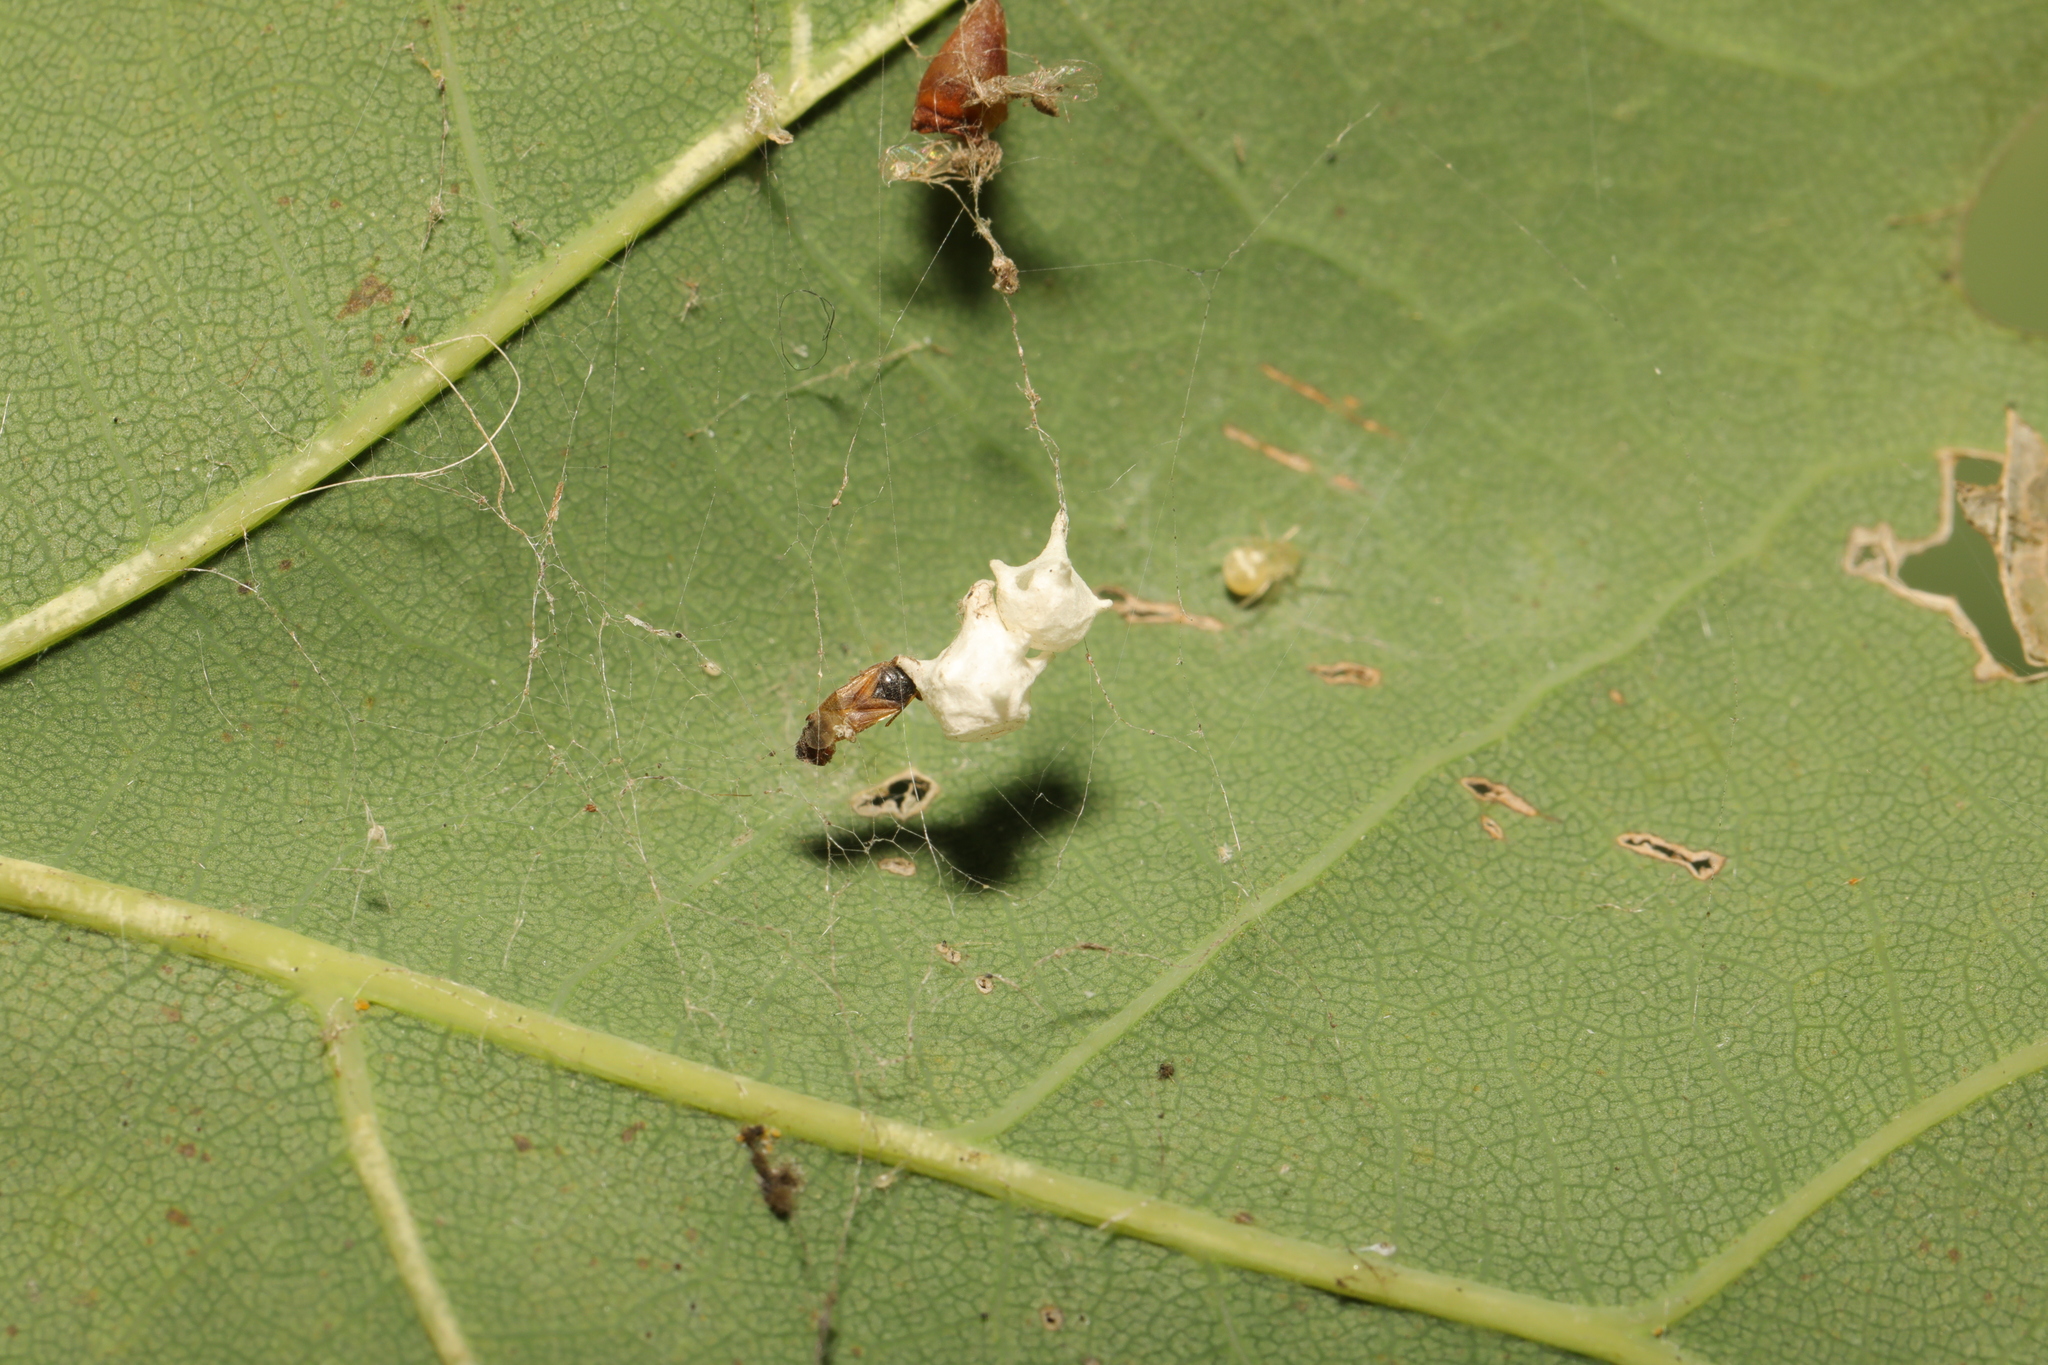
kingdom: Animalia
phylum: Arthropoda
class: Arachnida
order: Araneae
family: Theridiidae
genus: Paidiscura
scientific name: Paidiscura pallens
